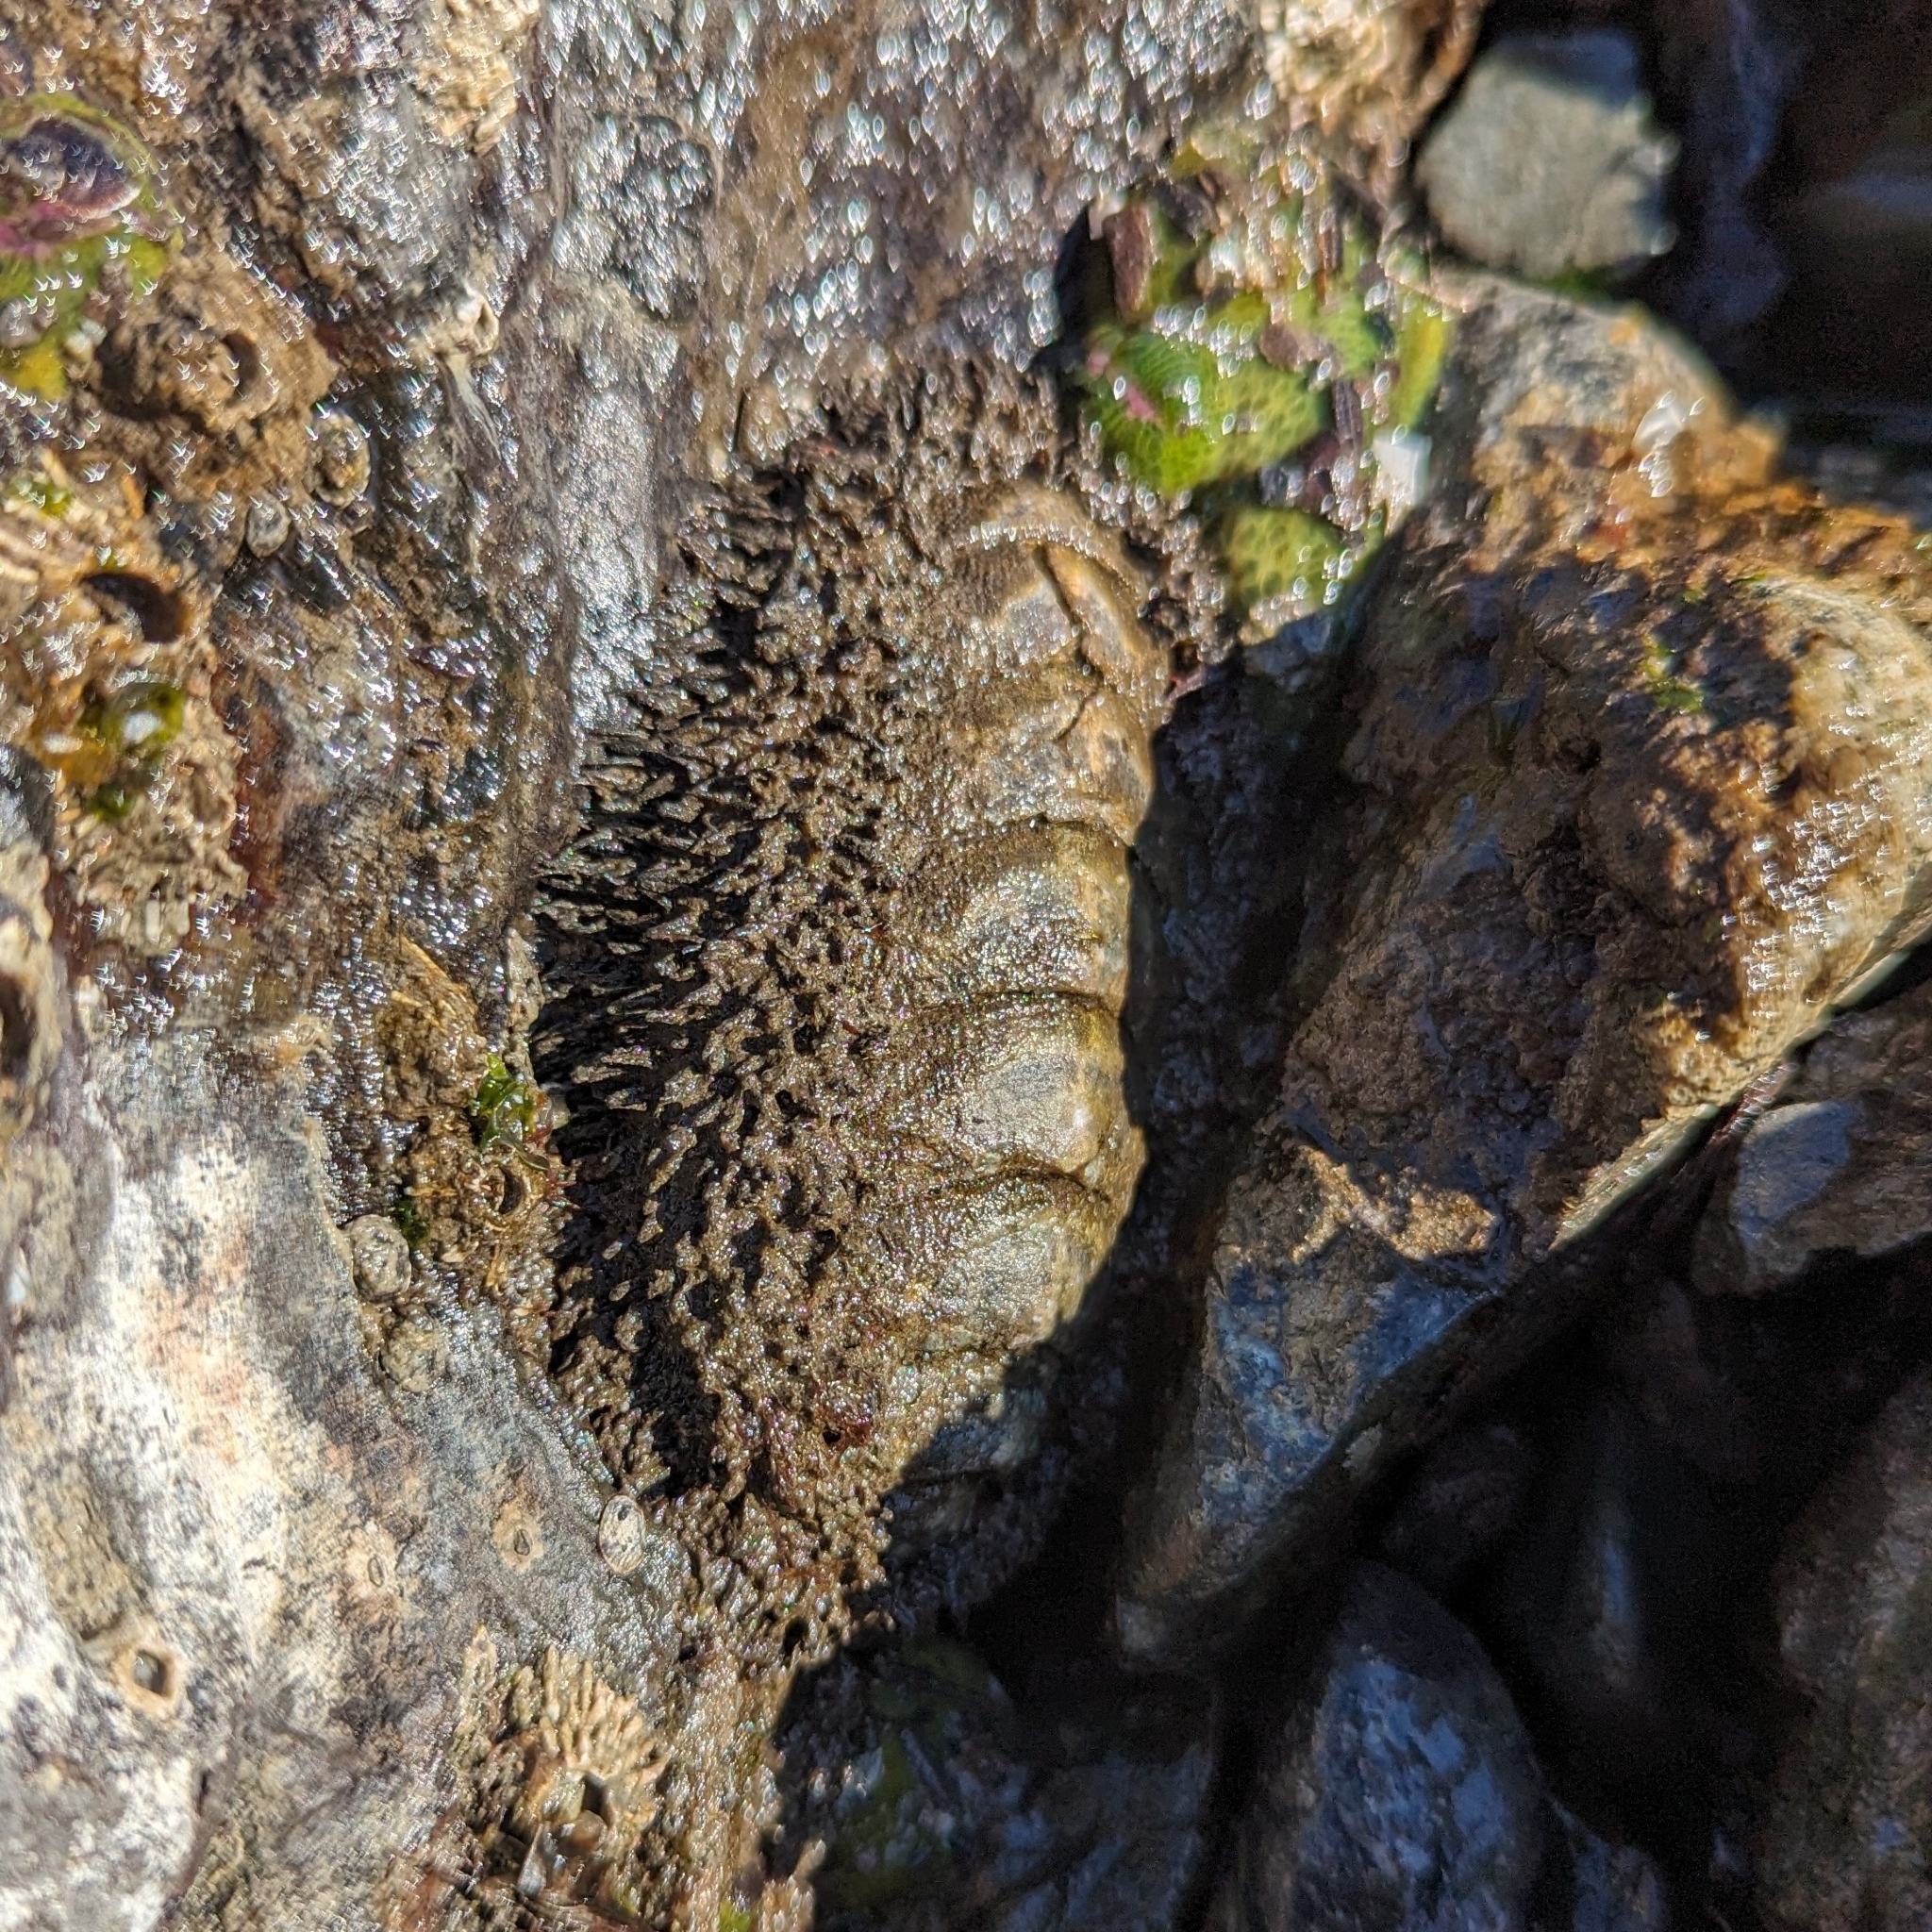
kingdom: Animalia
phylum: Mollusca
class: Polyplacophora
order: Chitonida
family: Mopaliidae
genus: Mopalia
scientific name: Mopalia muscosa
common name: Mossy chiton
